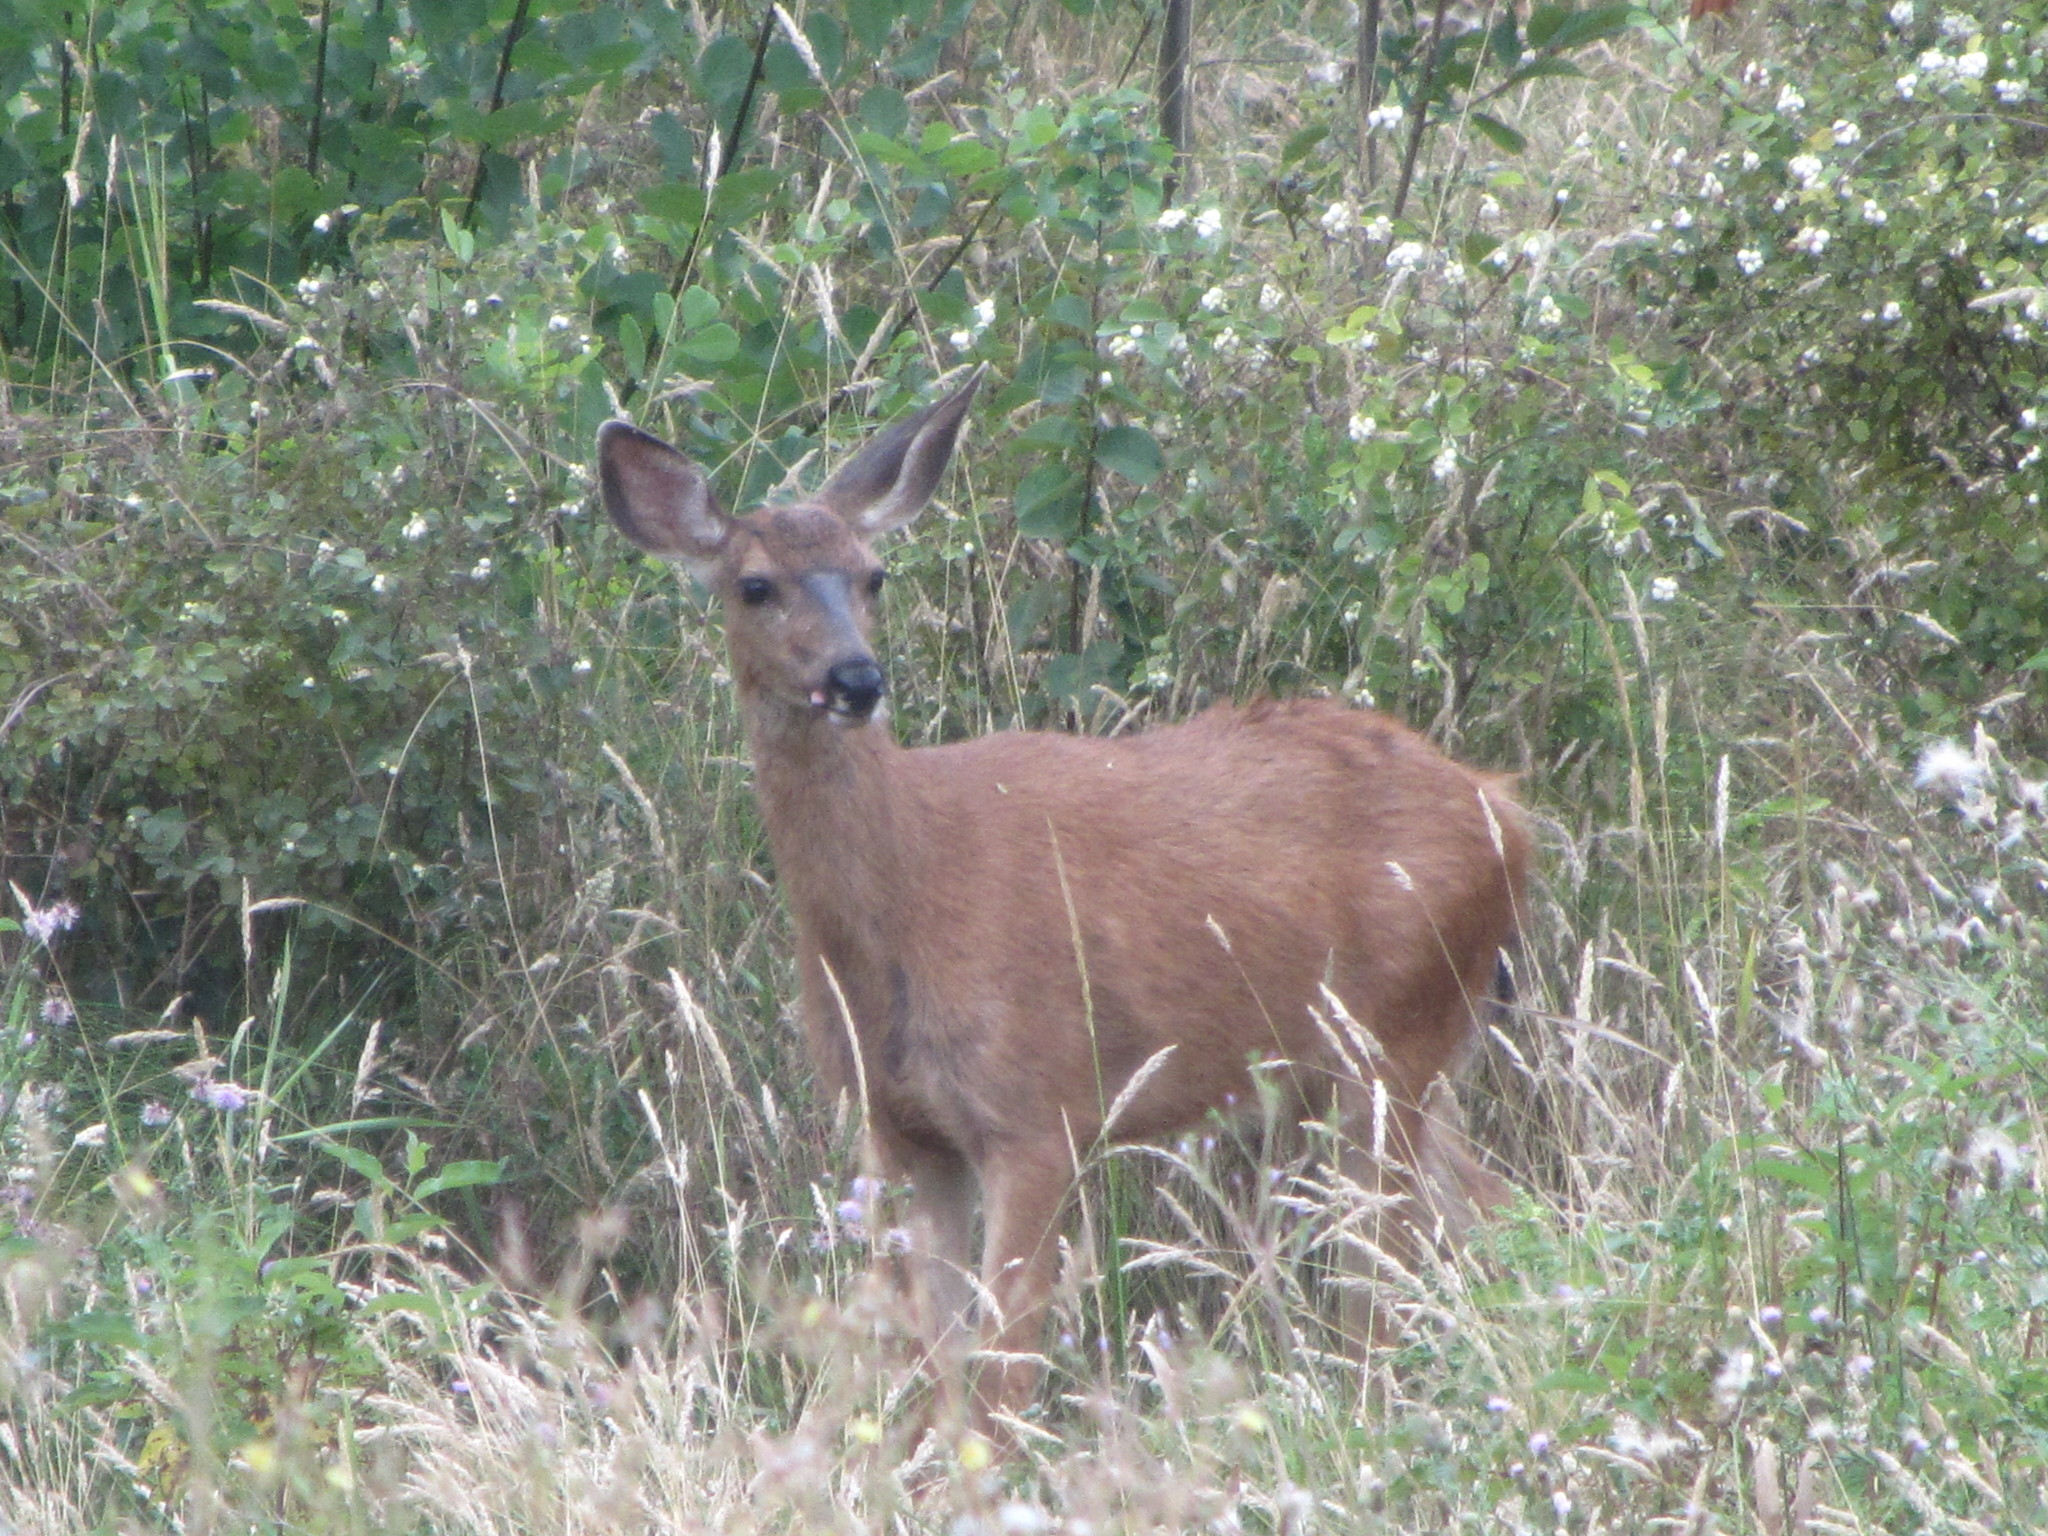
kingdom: Animalia
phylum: Chordata
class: Mammalia
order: Artiodactyla
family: Cervidae
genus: Odocoileus
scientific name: Odocoileus hemionus
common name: Mule deer
